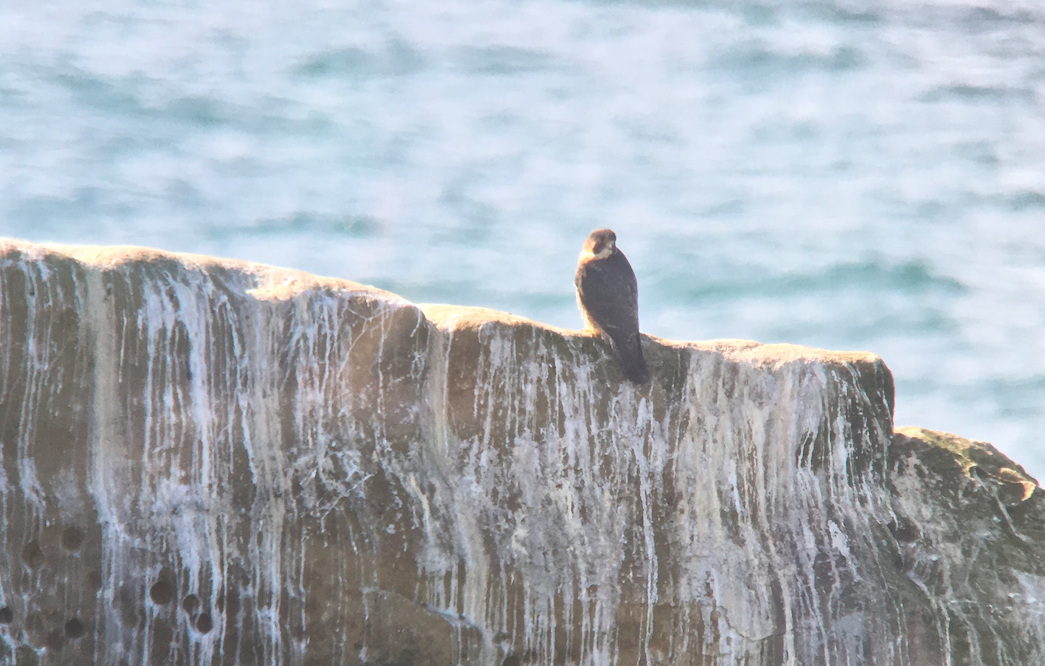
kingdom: Animalia
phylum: Chordata
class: Aves
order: Falconiformes
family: Falconidae
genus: Falco
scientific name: Falco peregrinus
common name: Peregrine falcon
